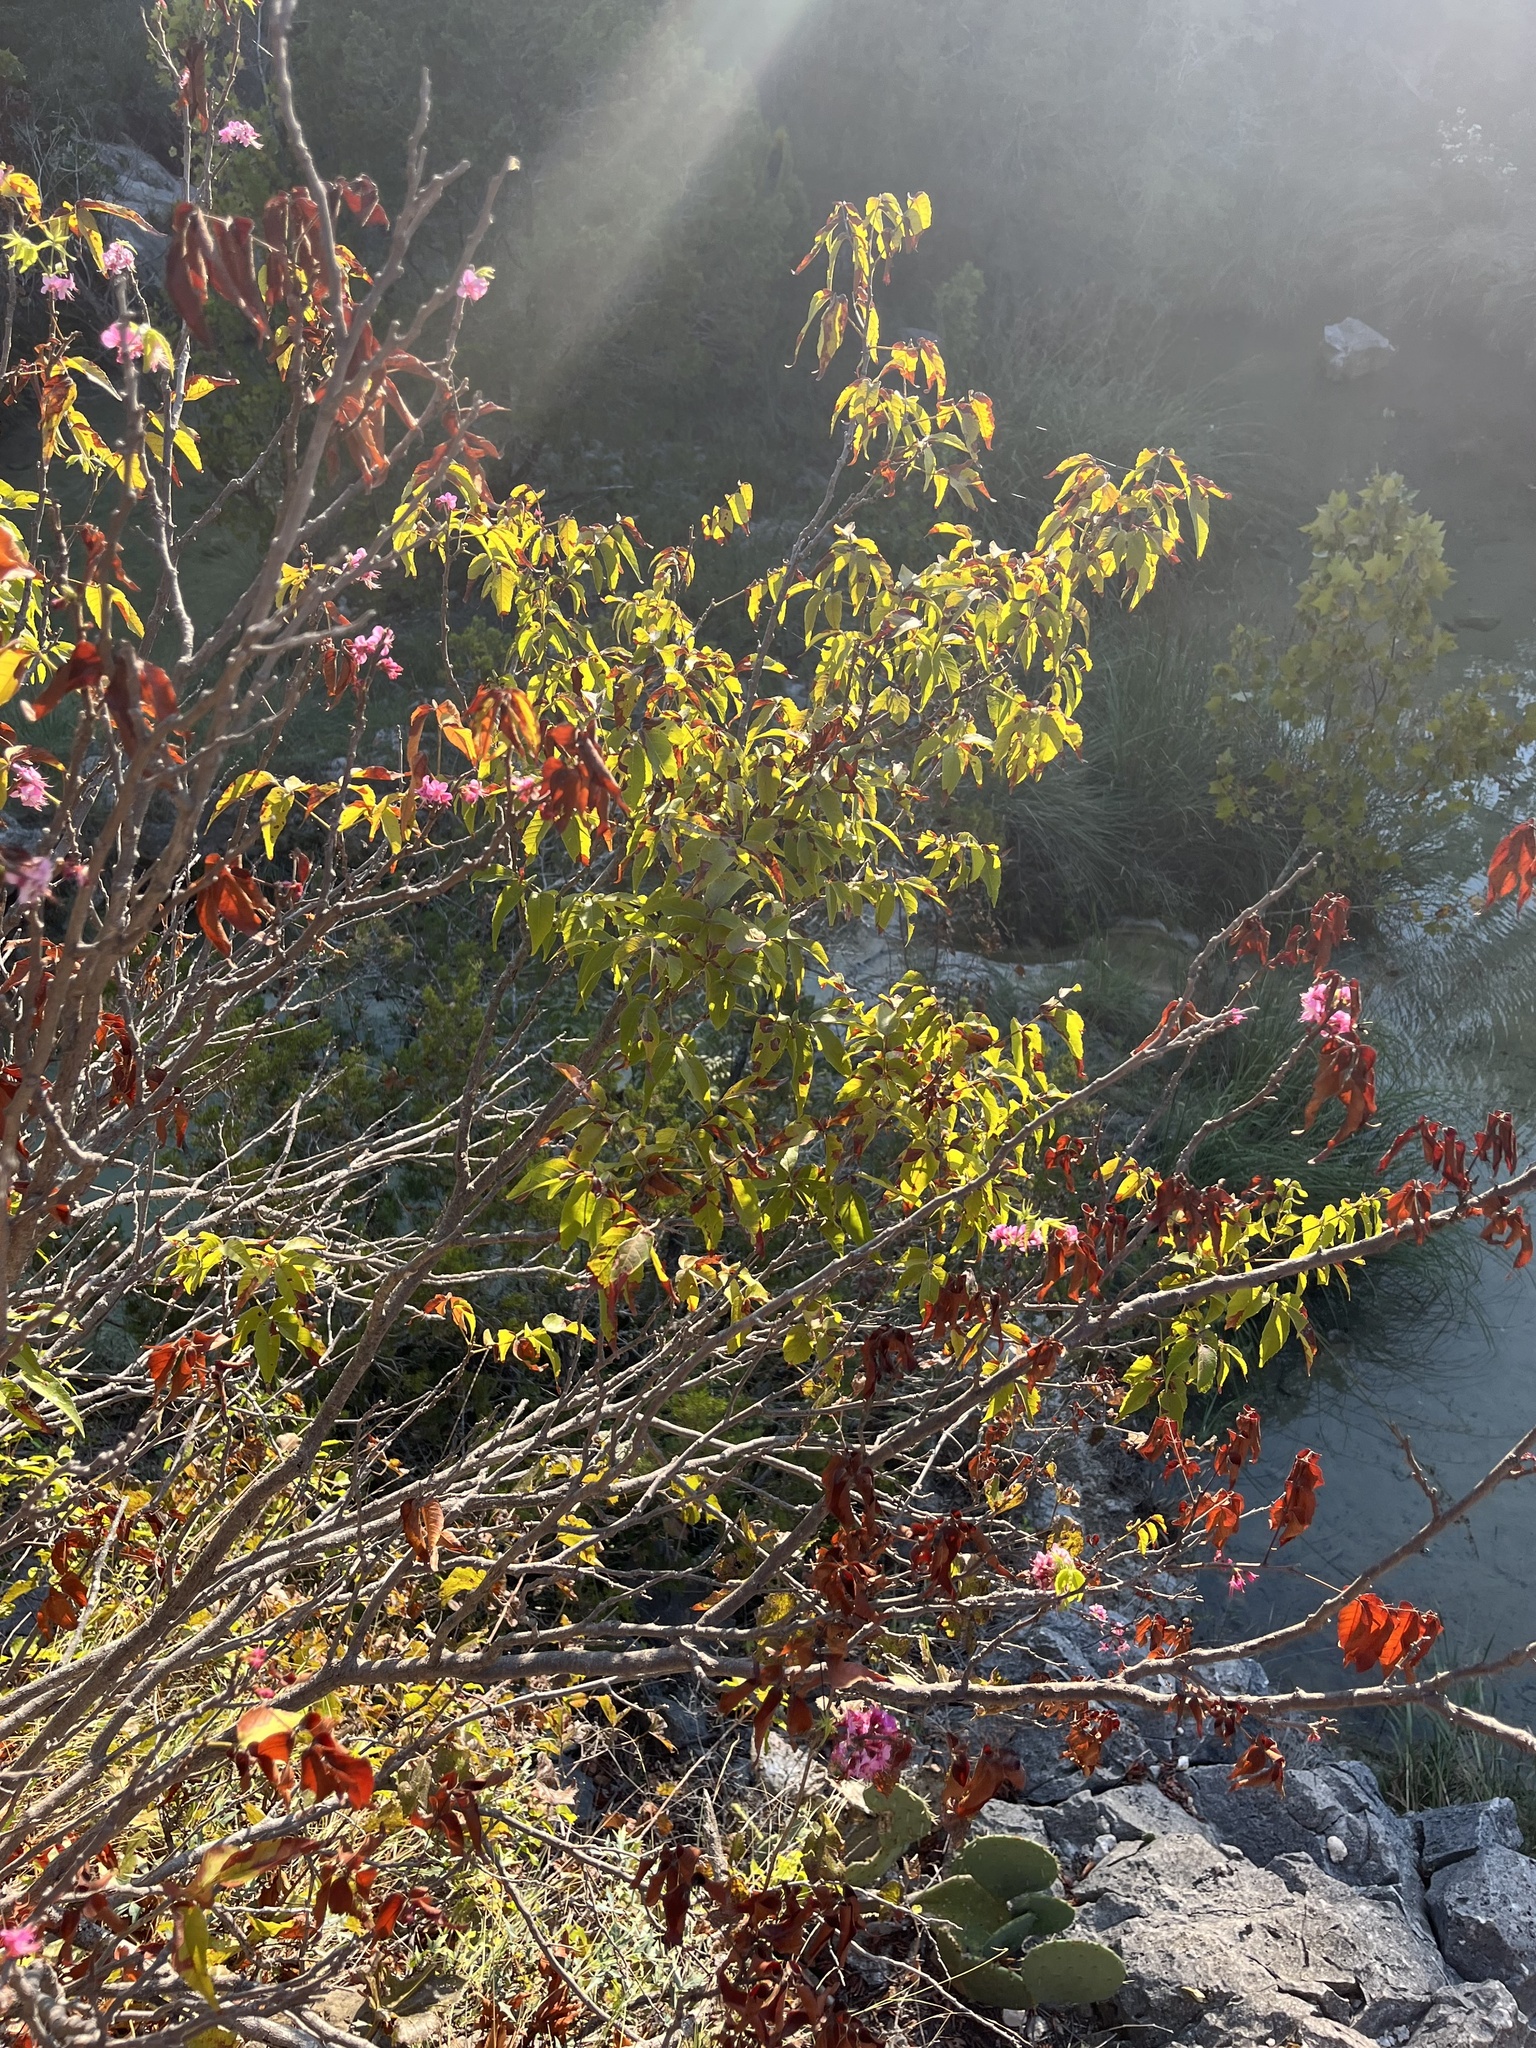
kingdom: Plantae
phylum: Tracheophyta
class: Magnoliopsida
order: Sapindales
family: Sapindaceae
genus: Ungnadia
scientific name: Ungnadia speciosa
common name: Texas-buckeye
